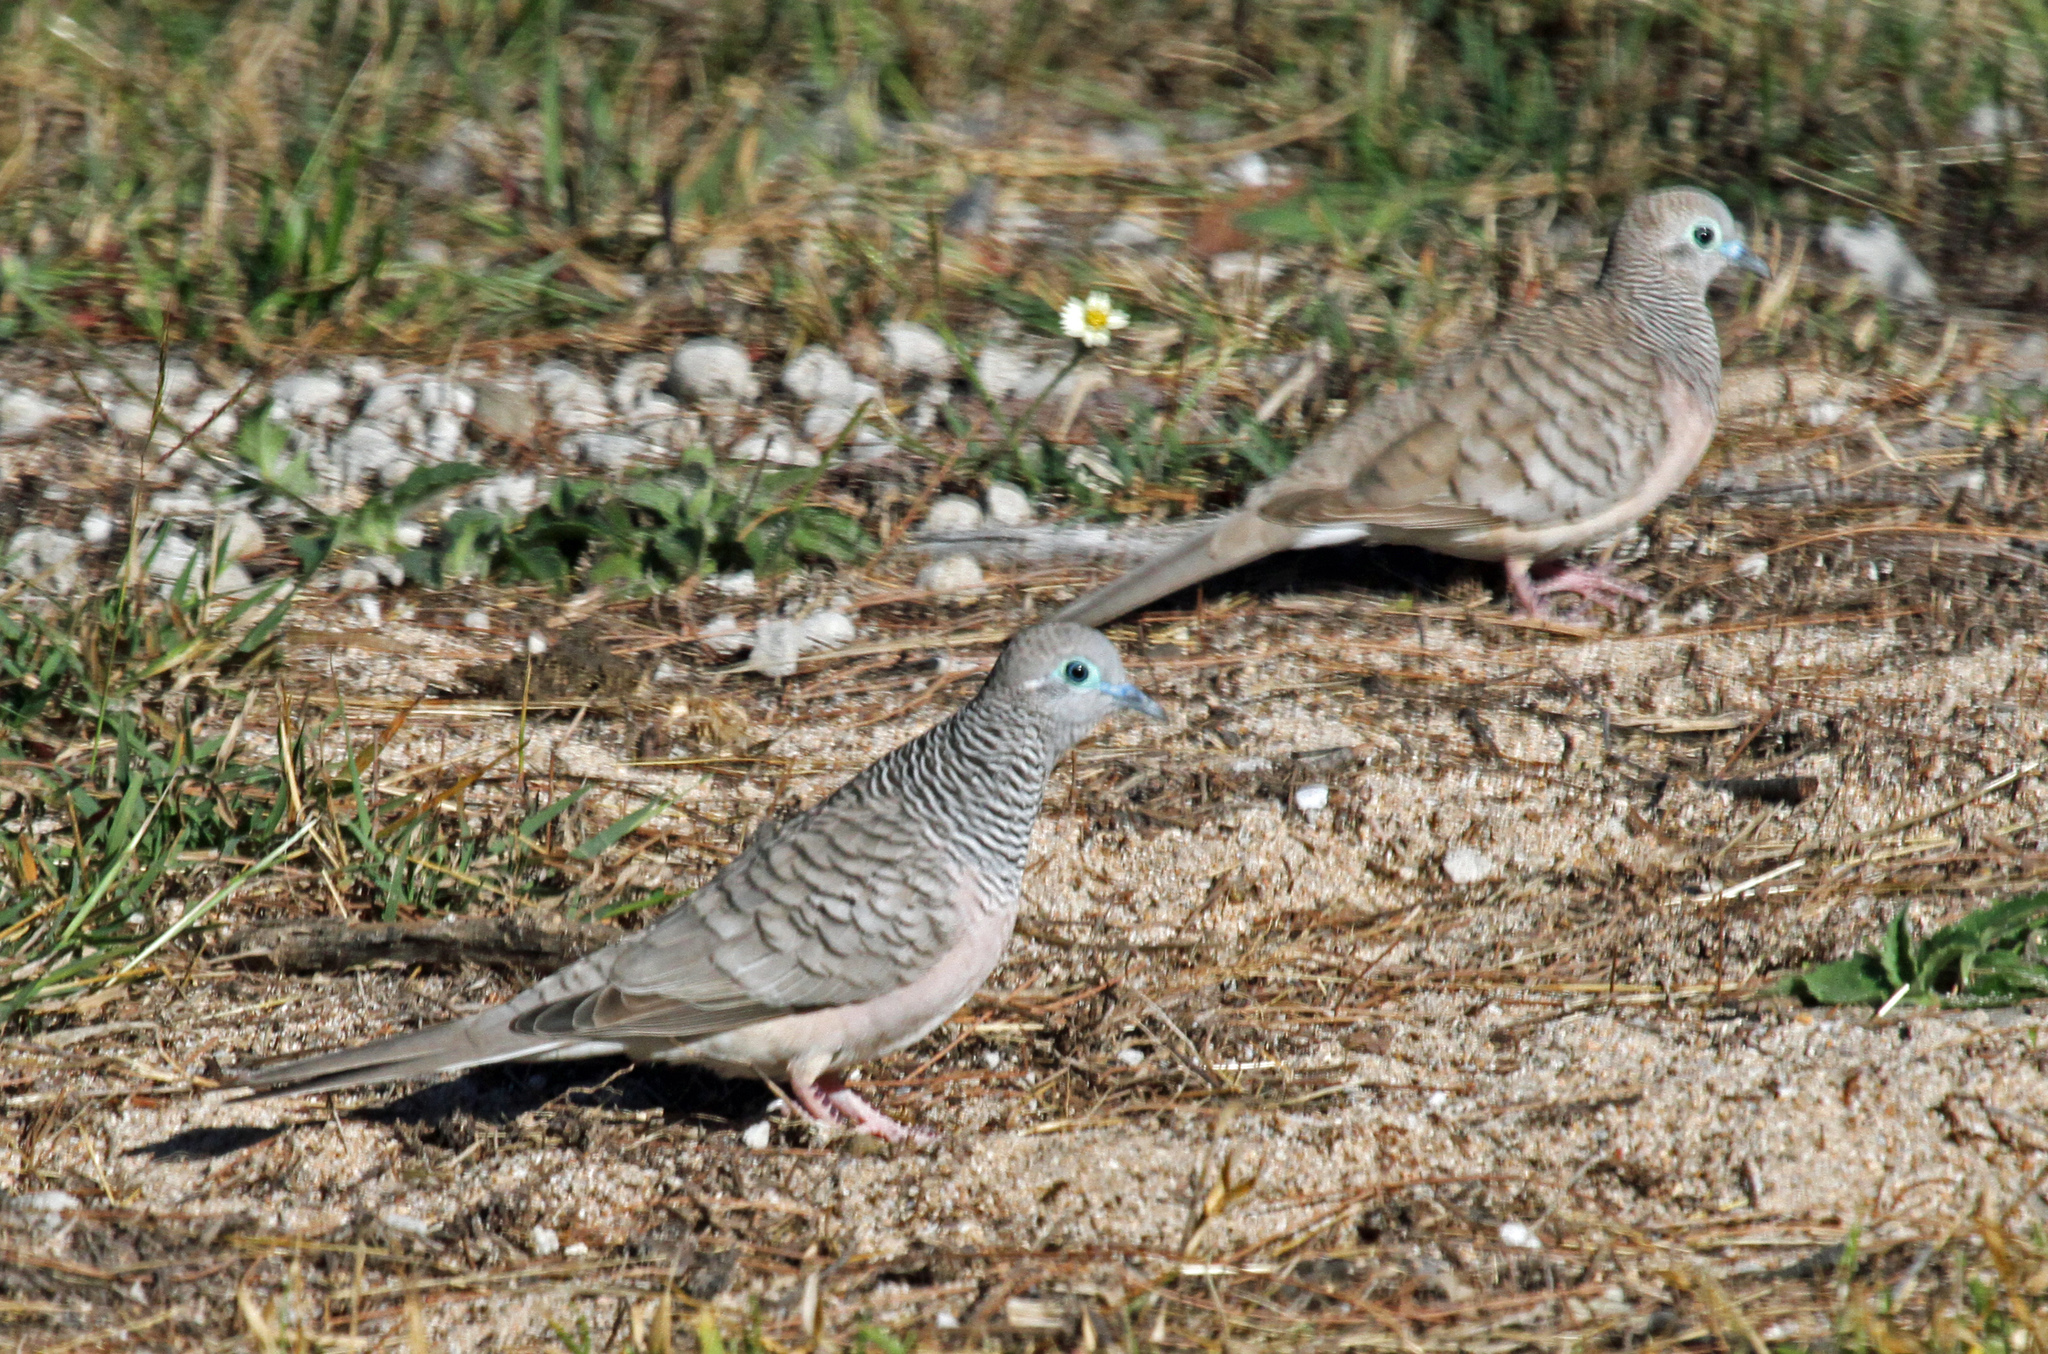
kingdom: Animalia
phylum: Chordata
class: Aves
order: Columbiformes
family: Columbidae
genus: Geopelia
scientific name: Geopelia placida
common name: Peaceful dove
